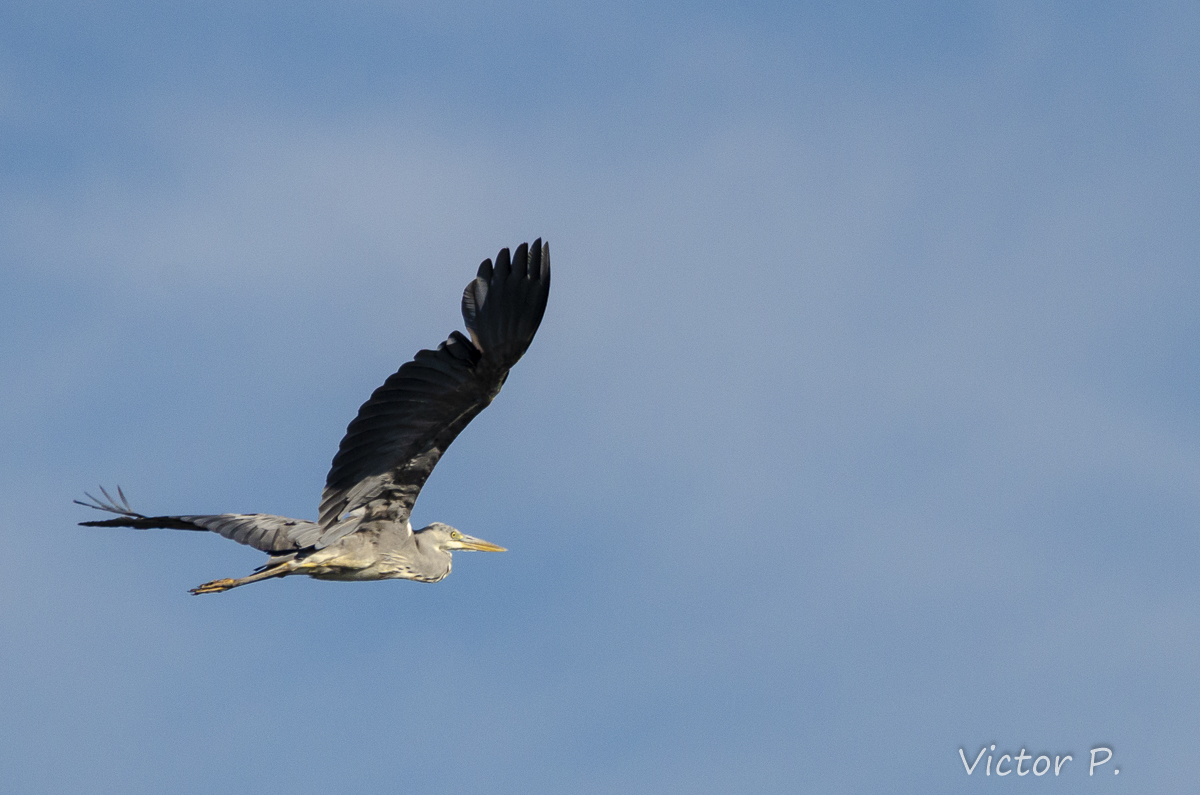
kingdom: Animalia
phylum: Chordata
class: Aves
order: Pelecaniformes
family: Ardeidae
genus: Ardea
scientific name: Ardea cinerea
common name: Grey heron
